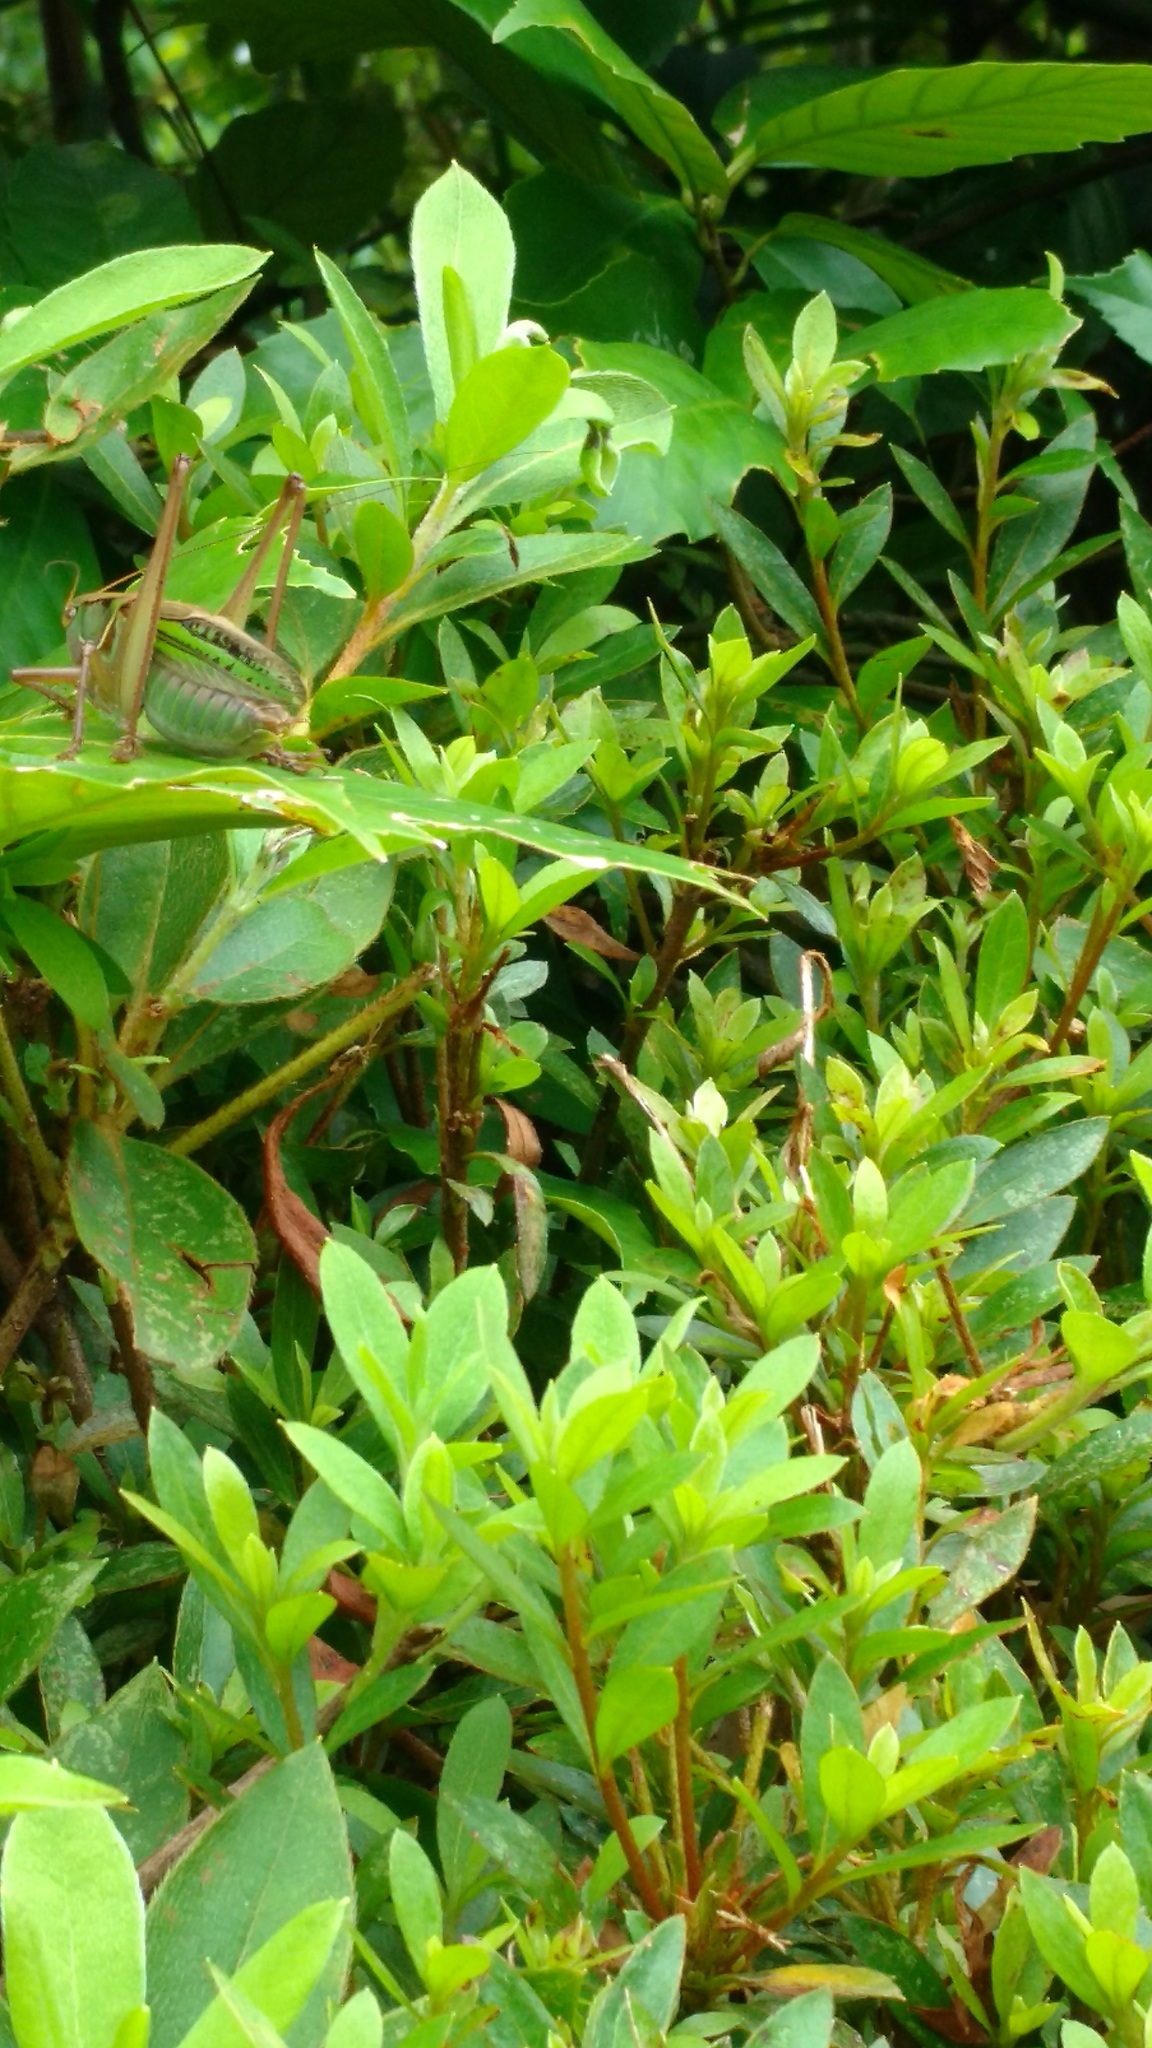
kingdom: Animalia
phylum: Arthropoda
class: Insecta
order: Orthoptera
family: Tettigoniidae
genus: Gampsocleis
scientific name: Gampsocleis buergeri
